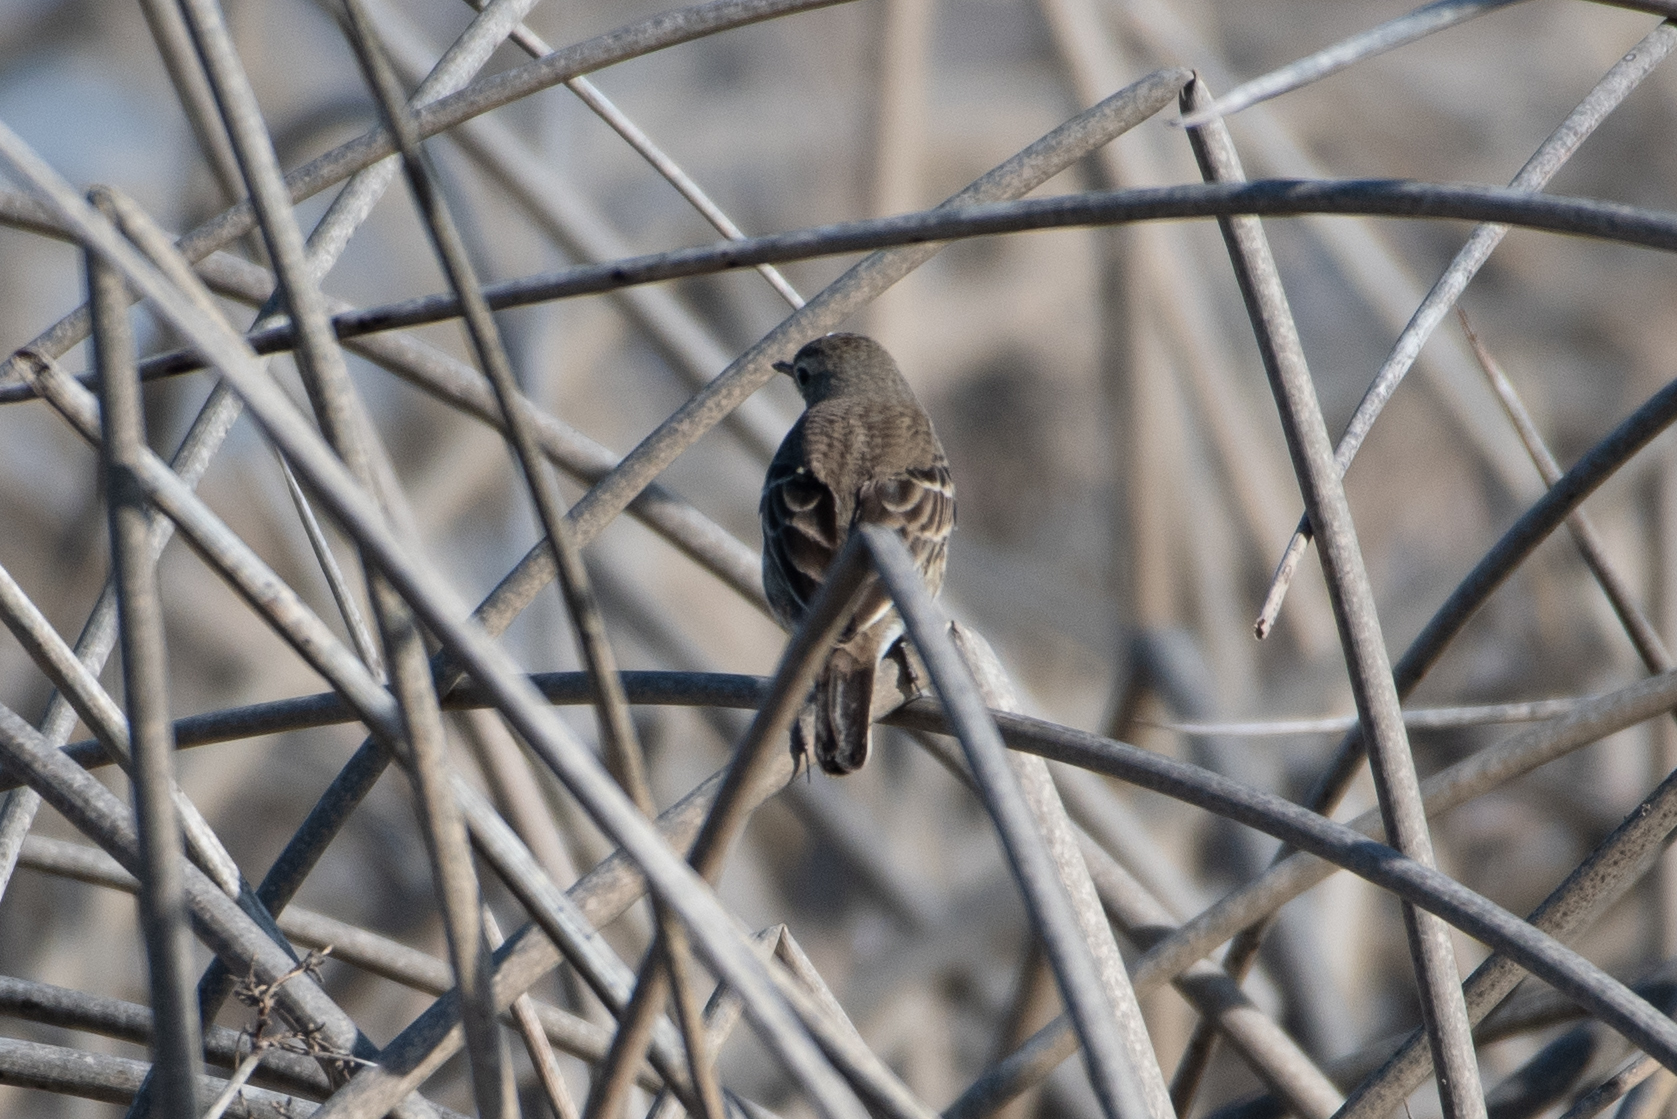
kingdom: Animalia
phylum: Chordata
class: Aves
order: Passeriformes
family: Motacillidae
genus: Anthus
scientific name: Anthus rubescens
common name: Buff-bellied pipit
